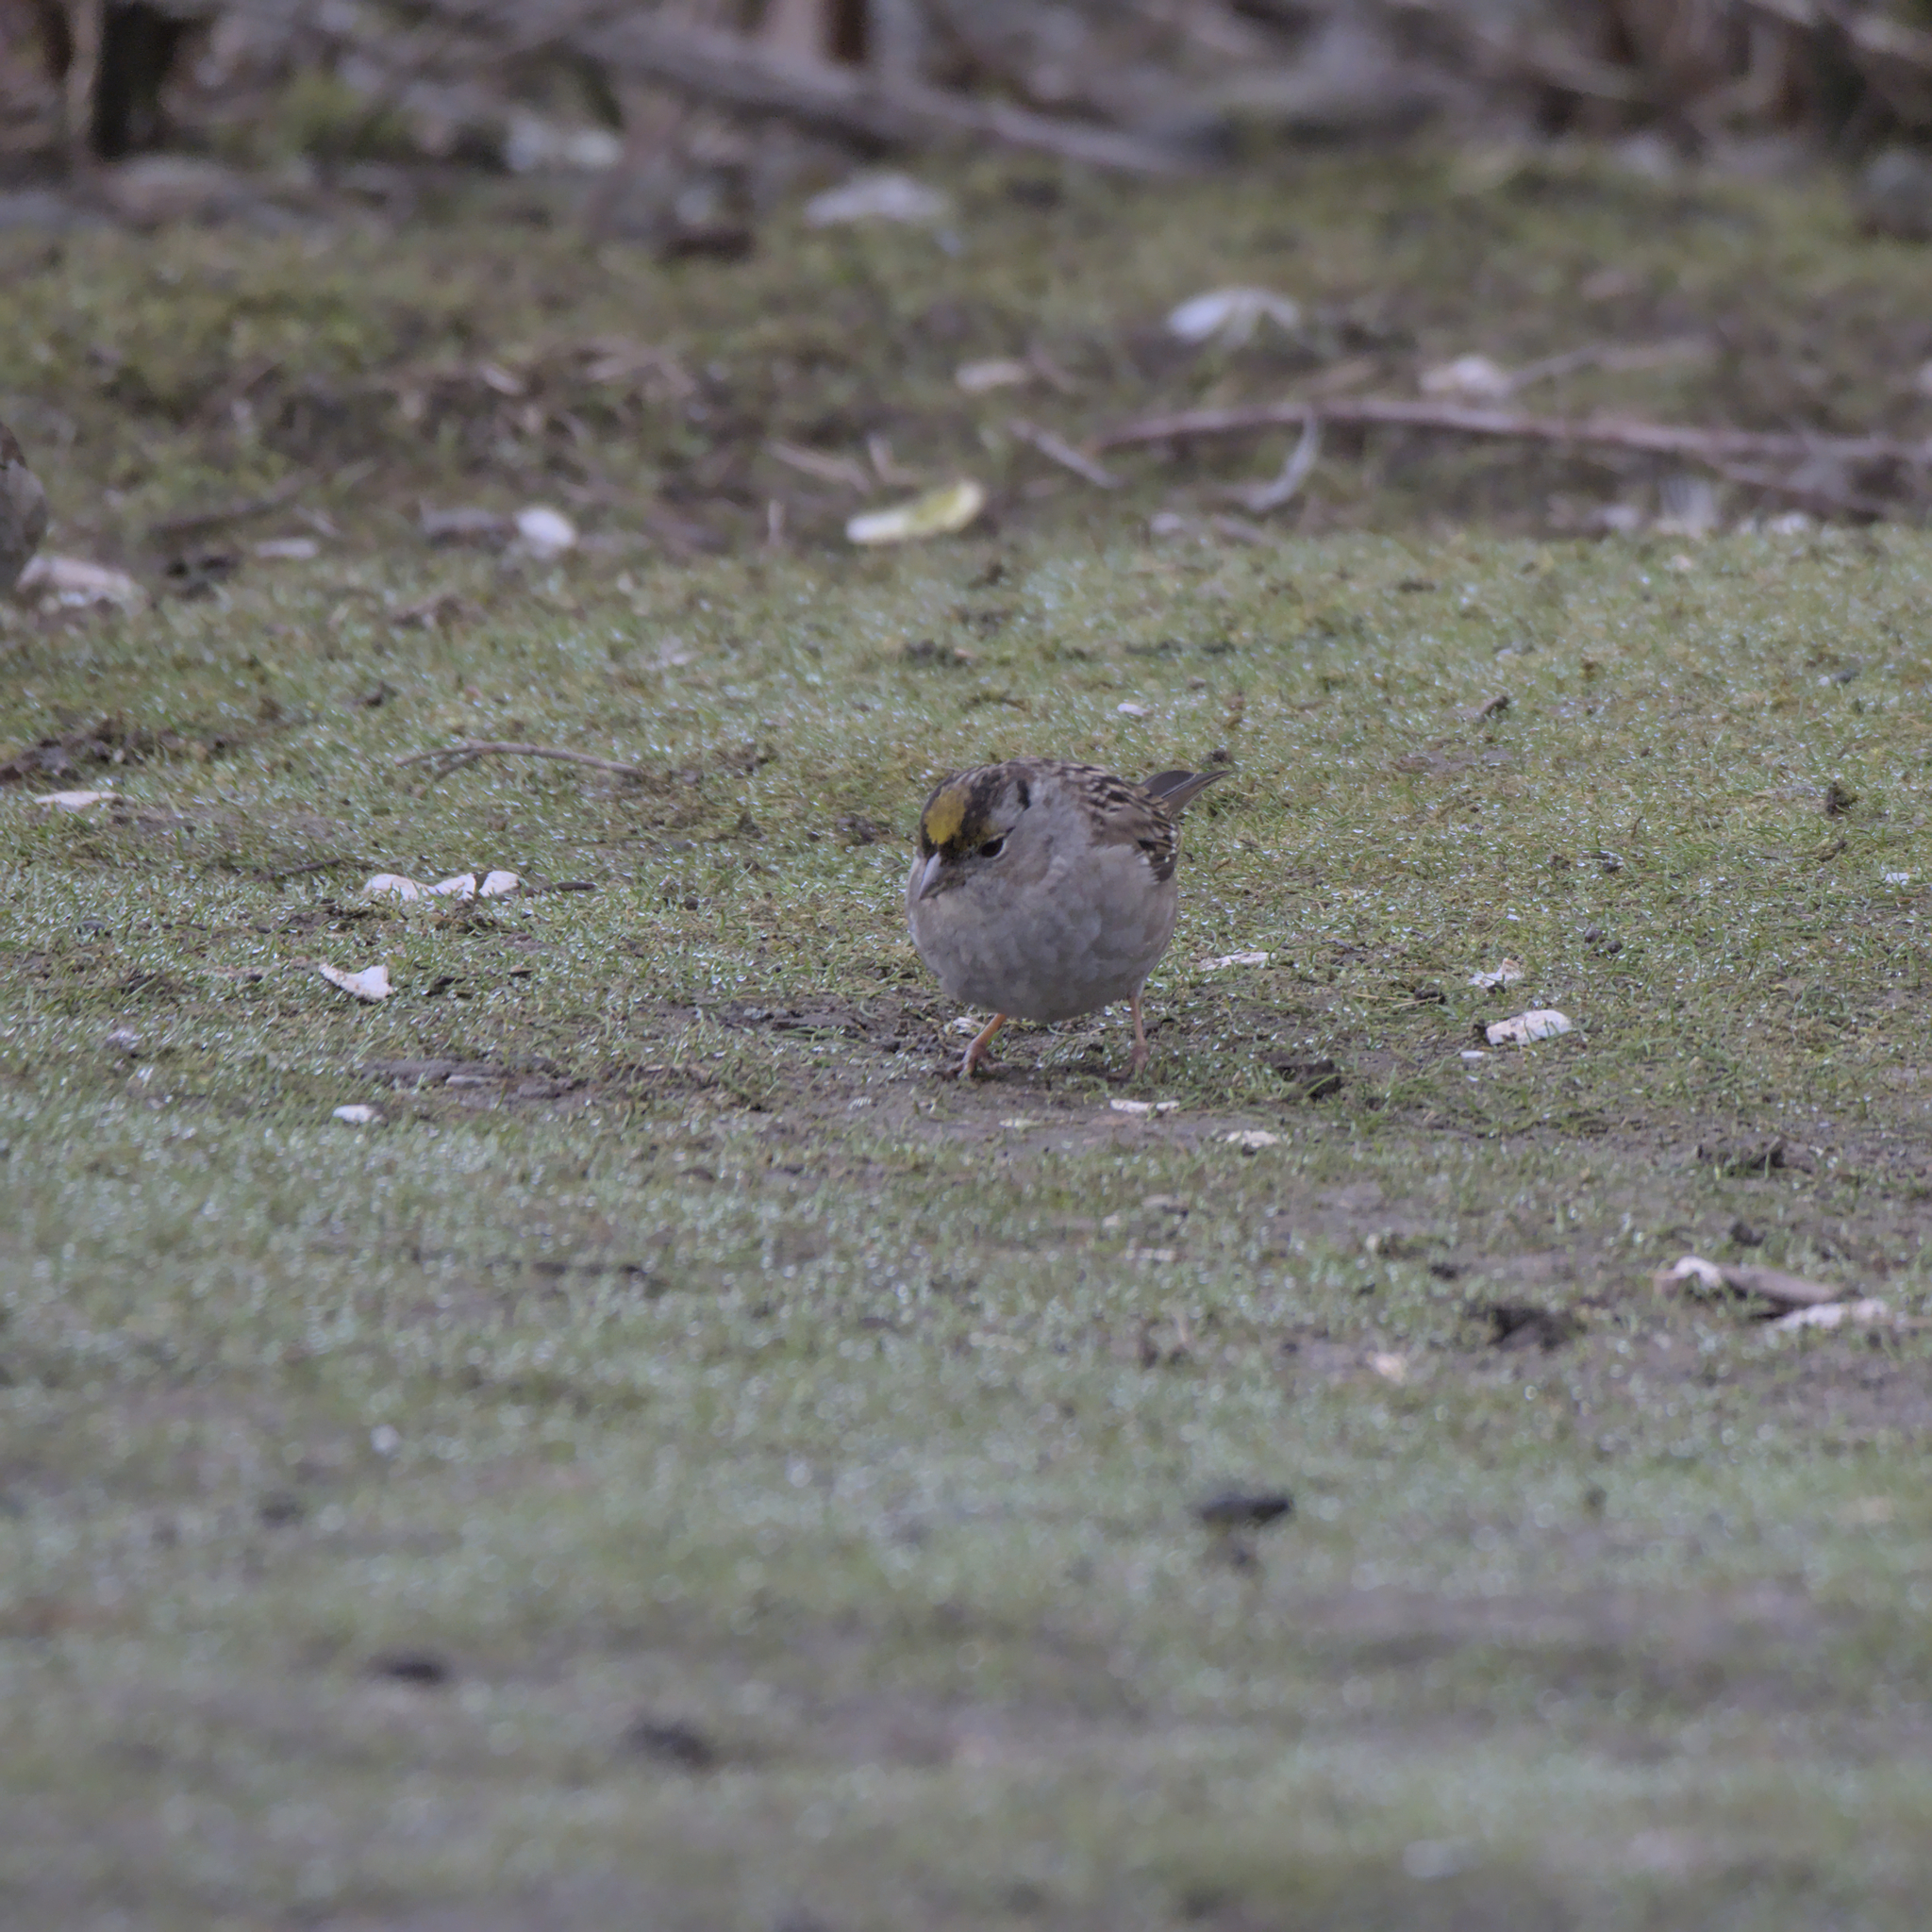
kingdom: Animalia
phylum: Chordata
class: Aves
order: Passeriformes
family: Passerellidae
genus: Zonotrichia
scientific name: Zonotrichia atricapilla
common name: Golden-crowned sparrow
